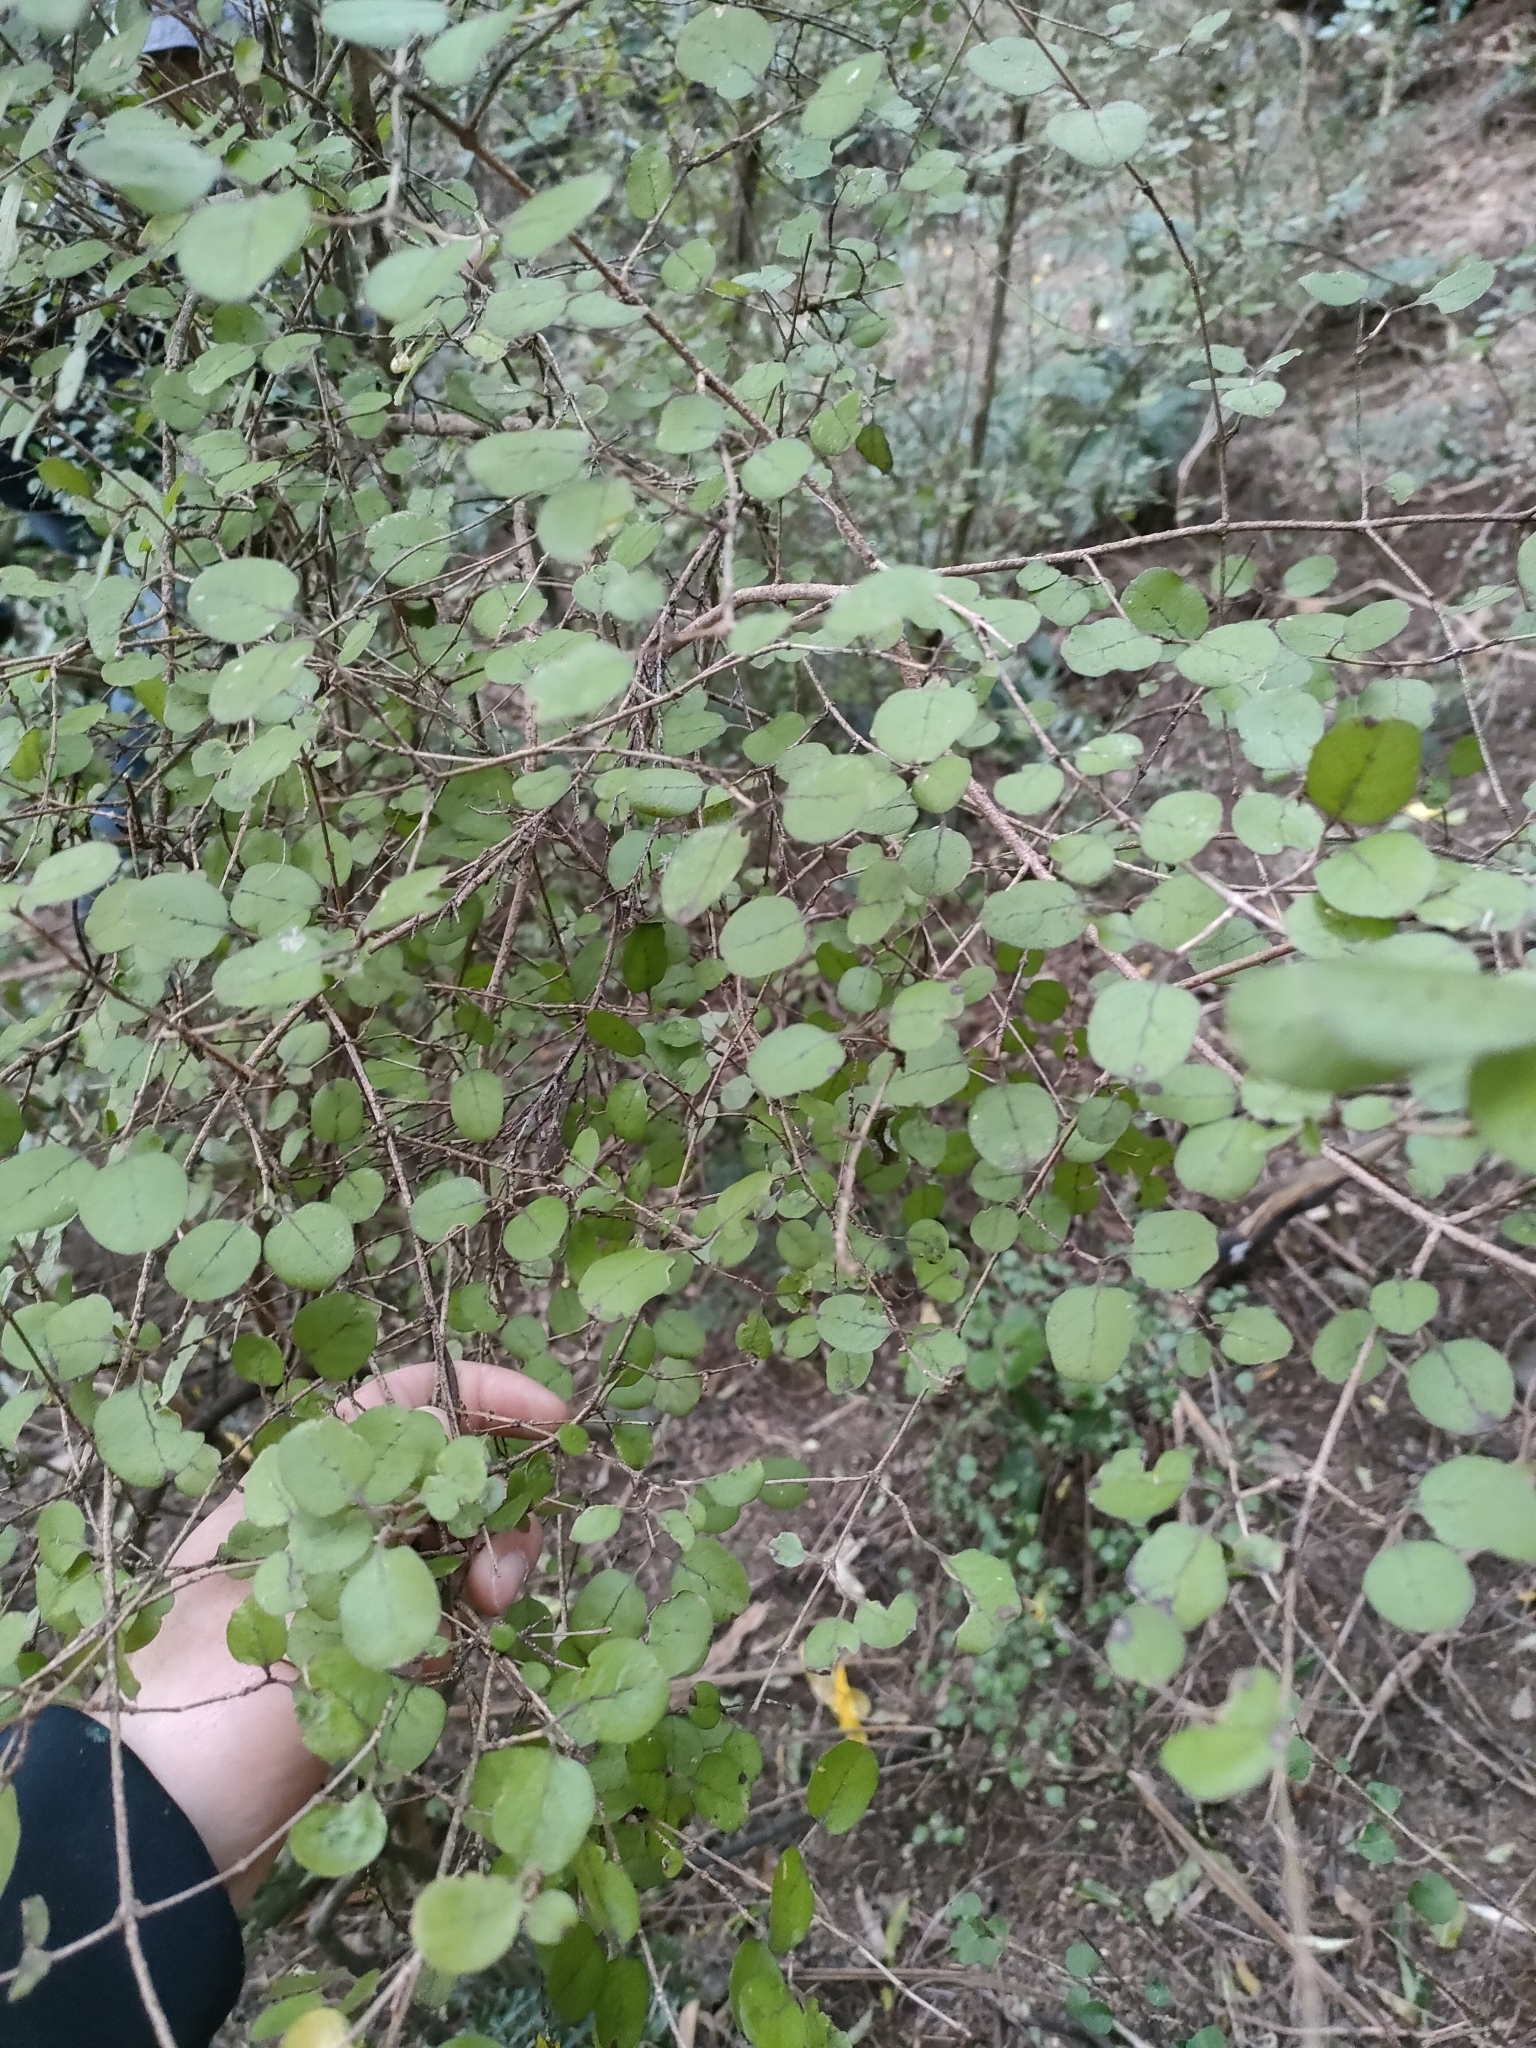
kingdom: Plantae
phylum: Tracheophyta
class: Magnoliopsida
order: Gentianales
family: Rubiaceae
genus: Coprosma
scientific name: Coprosma rotundifolia
